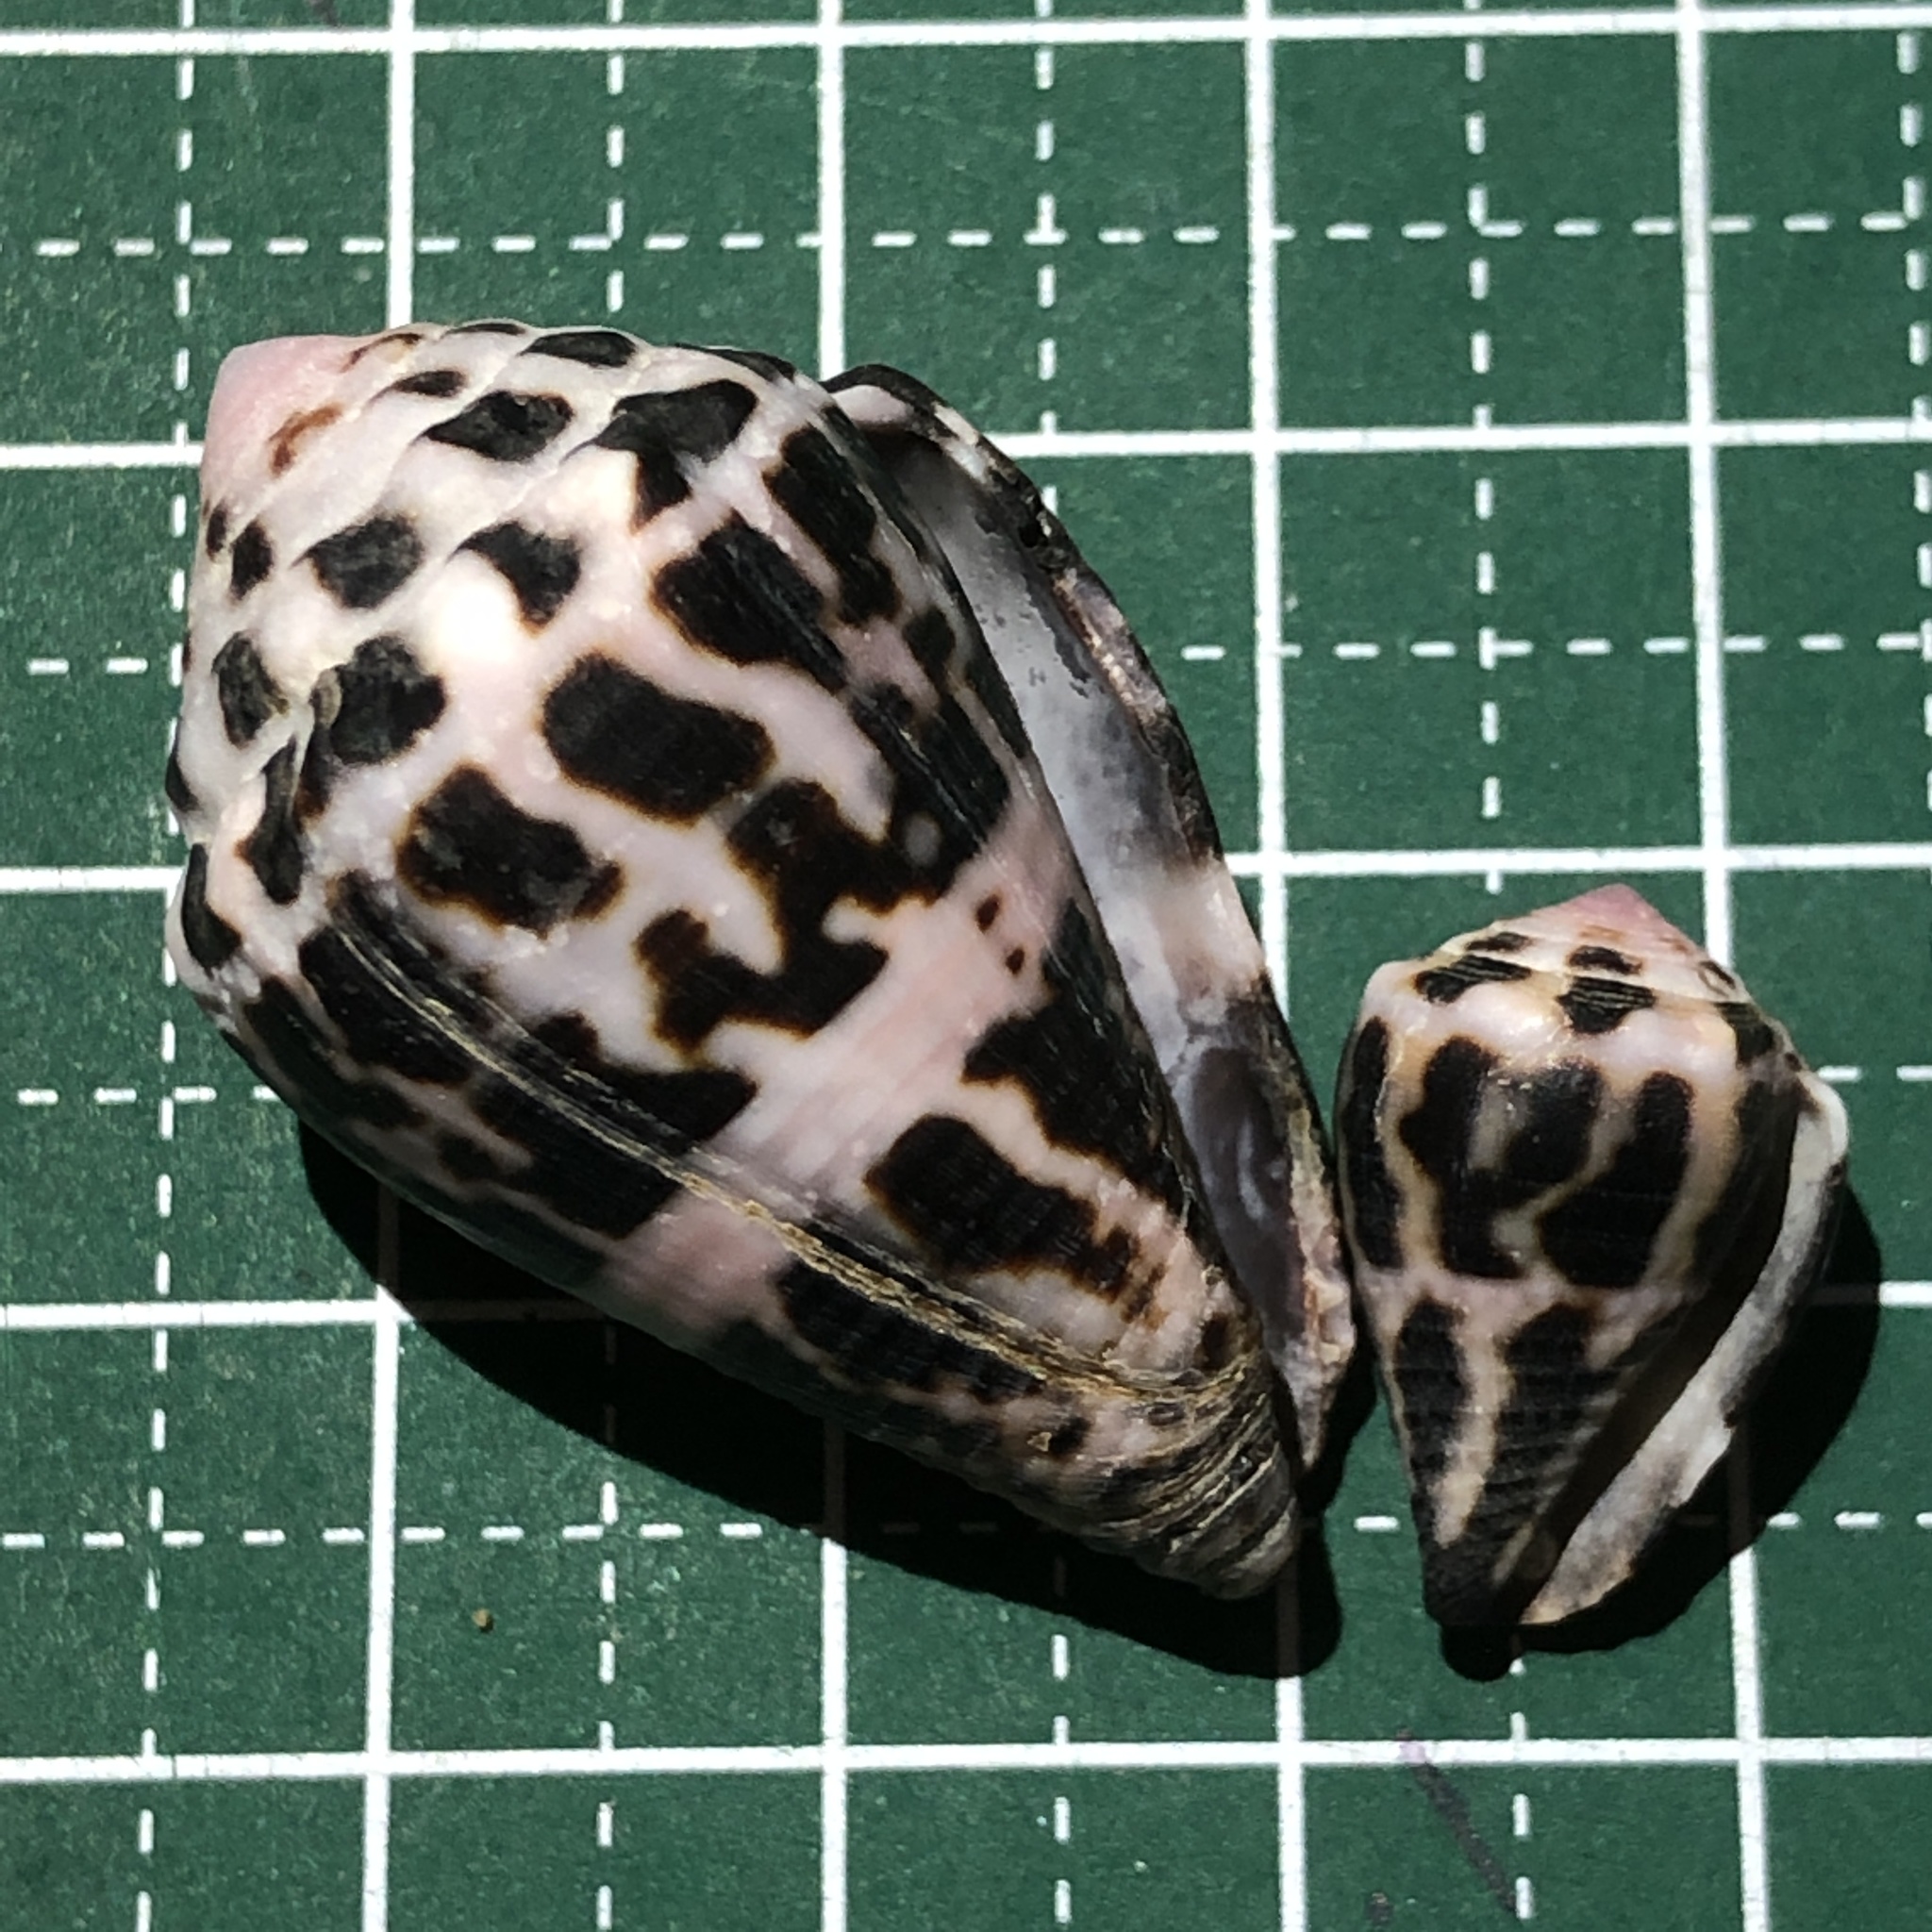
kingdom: Animalia
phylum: Mollusca
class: Gastropoda
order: Neogastropoda
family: Conidae
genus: Conus
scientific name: Conus chaldaeus
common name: Astrologer's cone
